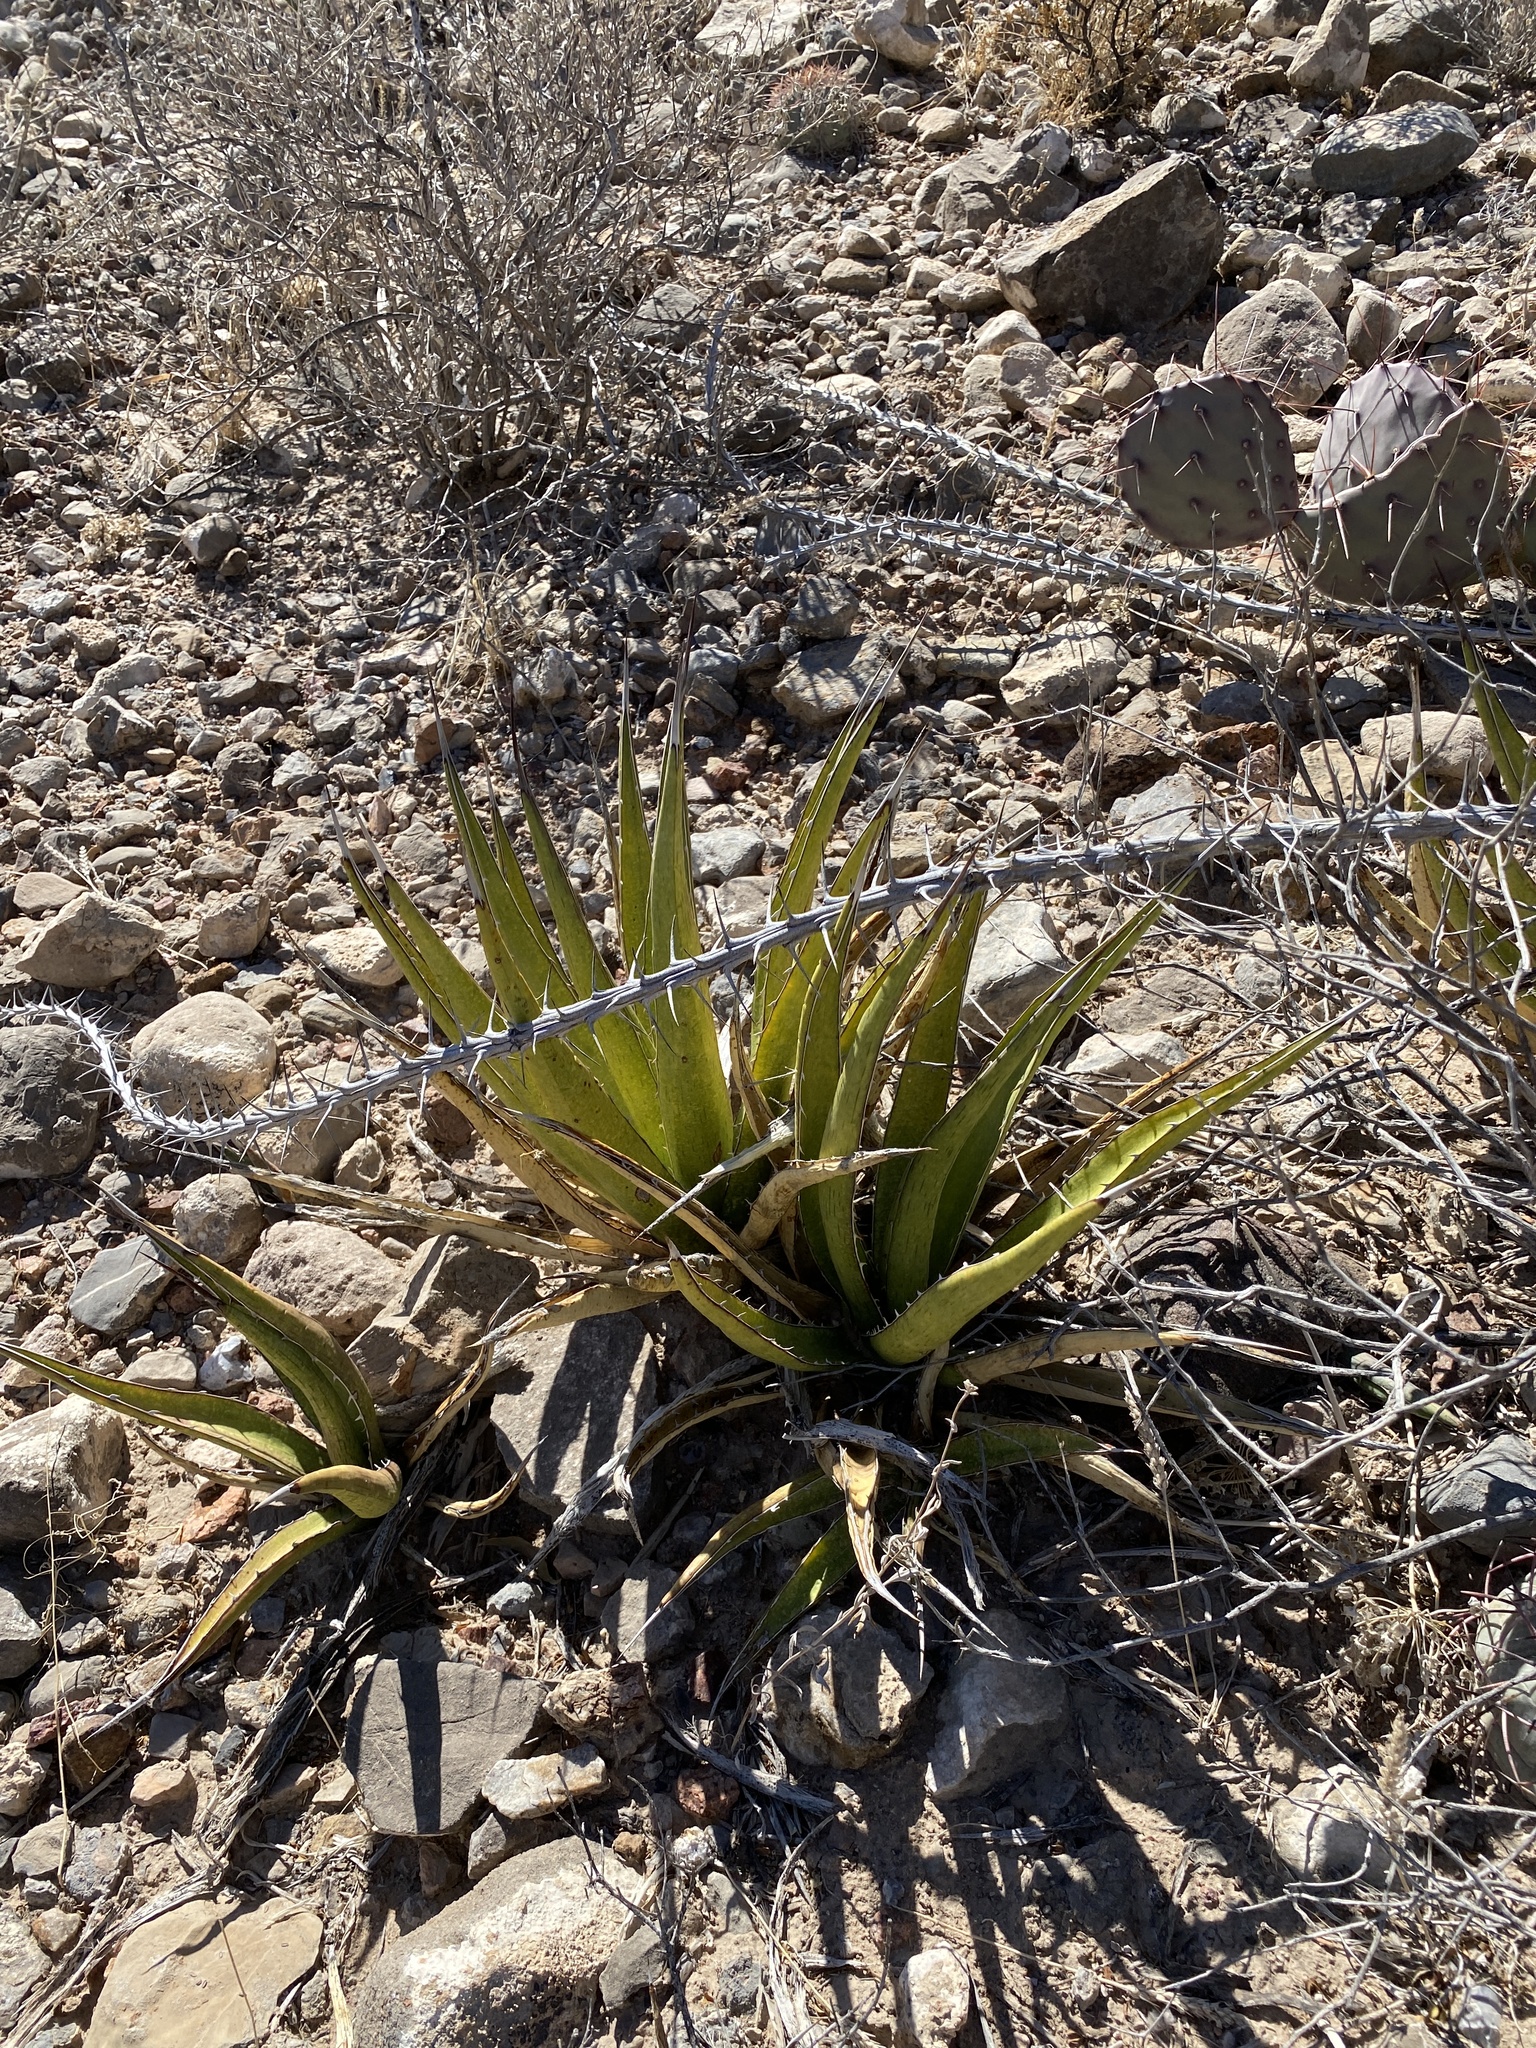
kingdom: Plantae
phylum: Tracheophyta
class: Liliopsida
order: Asparagales
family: Asparagaceae
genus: Agave
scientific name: Agave lechuguilla
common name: Lecheguilla agave
